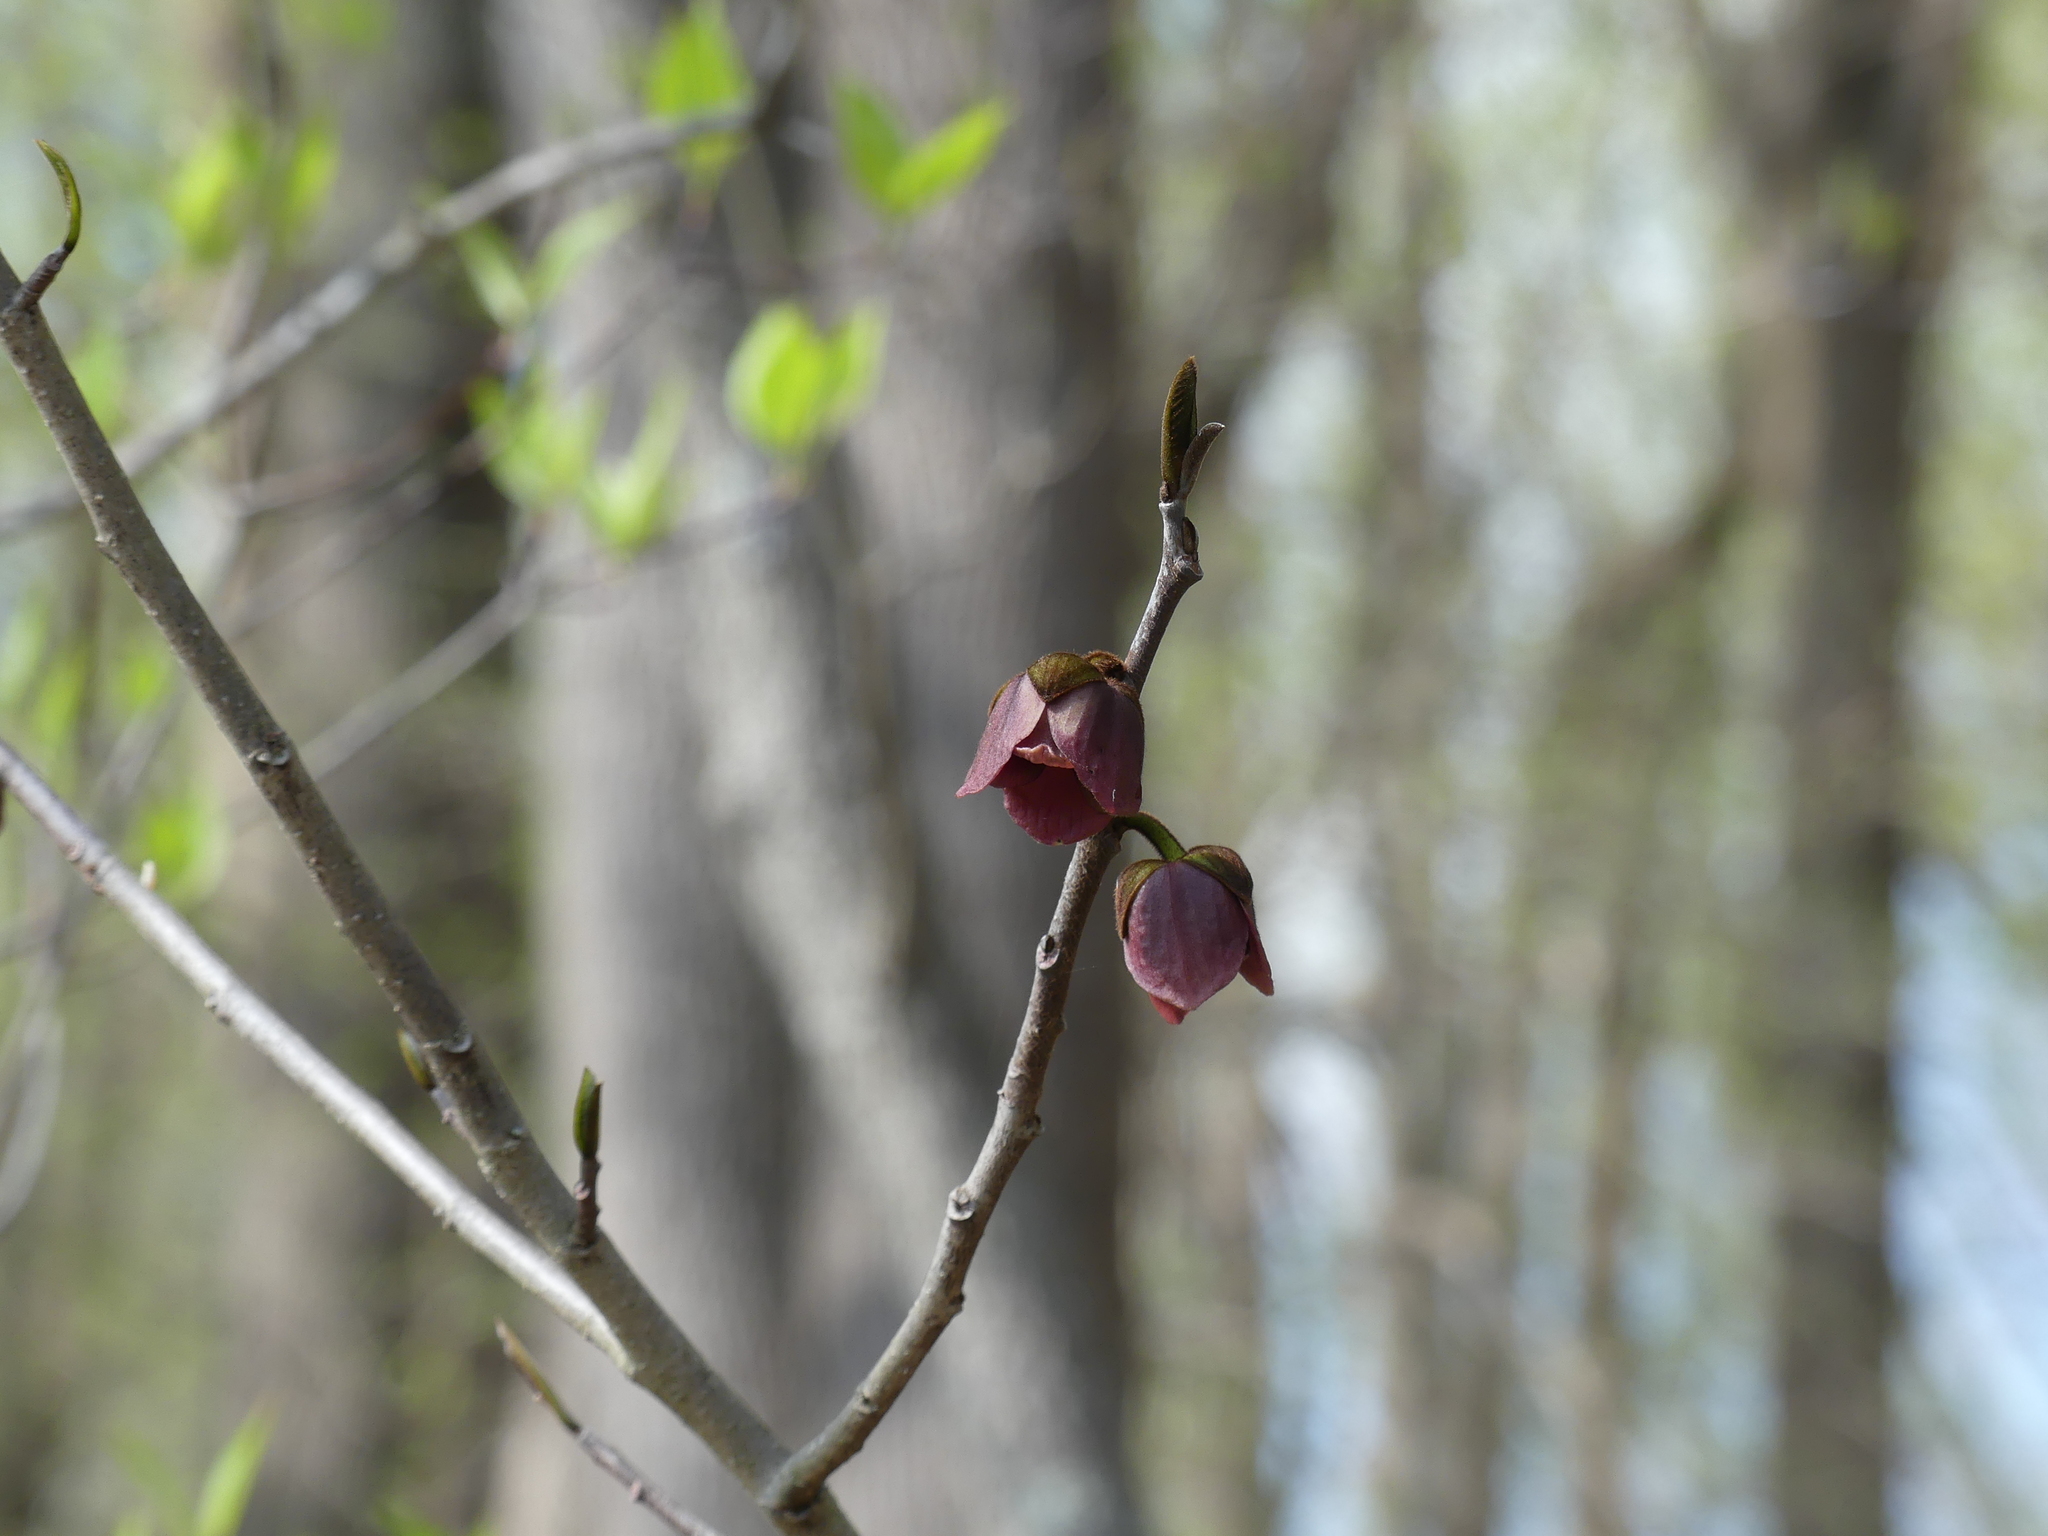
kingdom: Plantae
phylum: Tracheophyta
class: Magnoliopsida
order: Magnoliales
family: Annonaceae
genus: Asimina
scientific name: Asimina triloba
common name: Dog-banana
